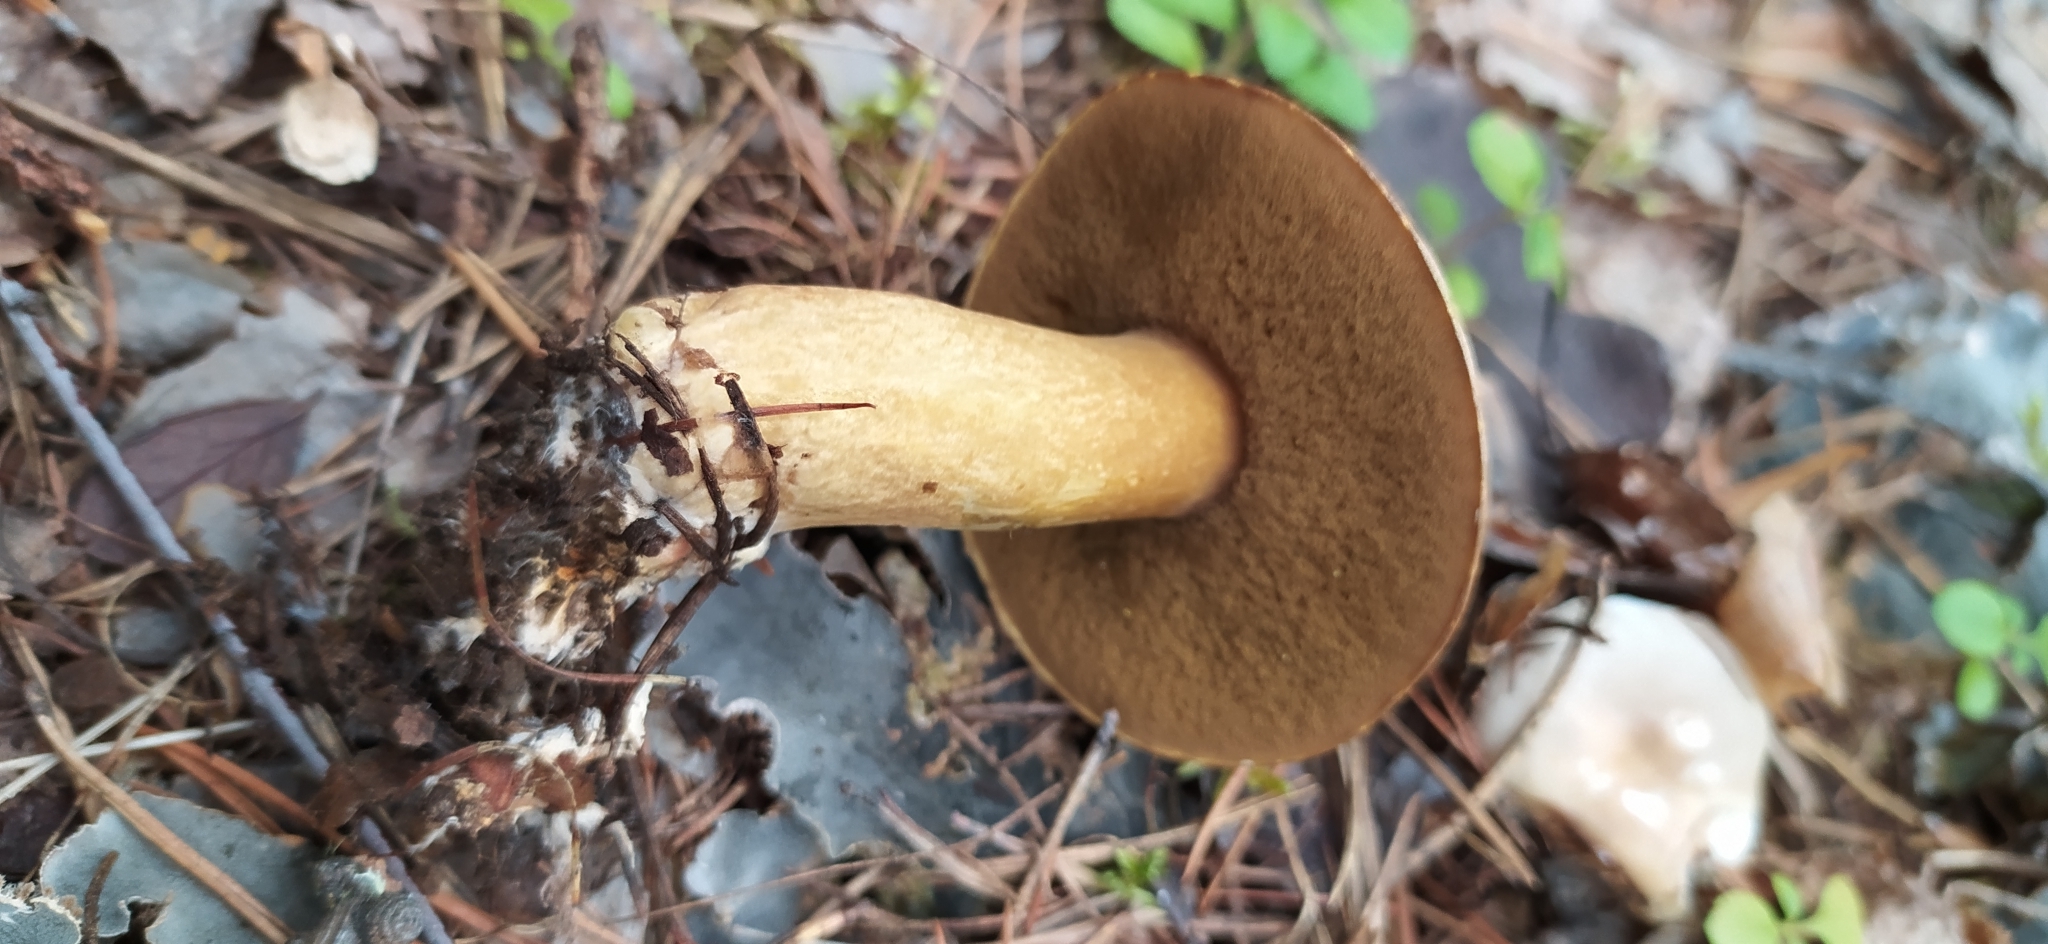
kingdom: Fungi
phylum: Basidiomycota
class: Agaricomycetes
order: Boletales
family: Suillaceae
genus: Suillus
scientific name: Suillus variegatus
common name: Velvet bolete
